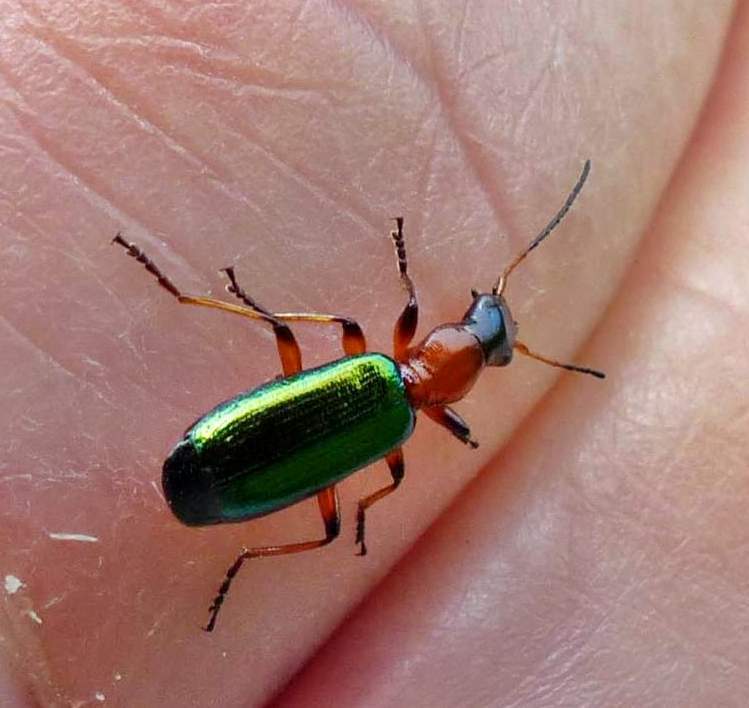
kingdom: Animalia
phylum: Arthropoda
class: Insecta
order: Coleoptera
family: Carabidae
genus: Calleida
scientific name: Calleida punctata
